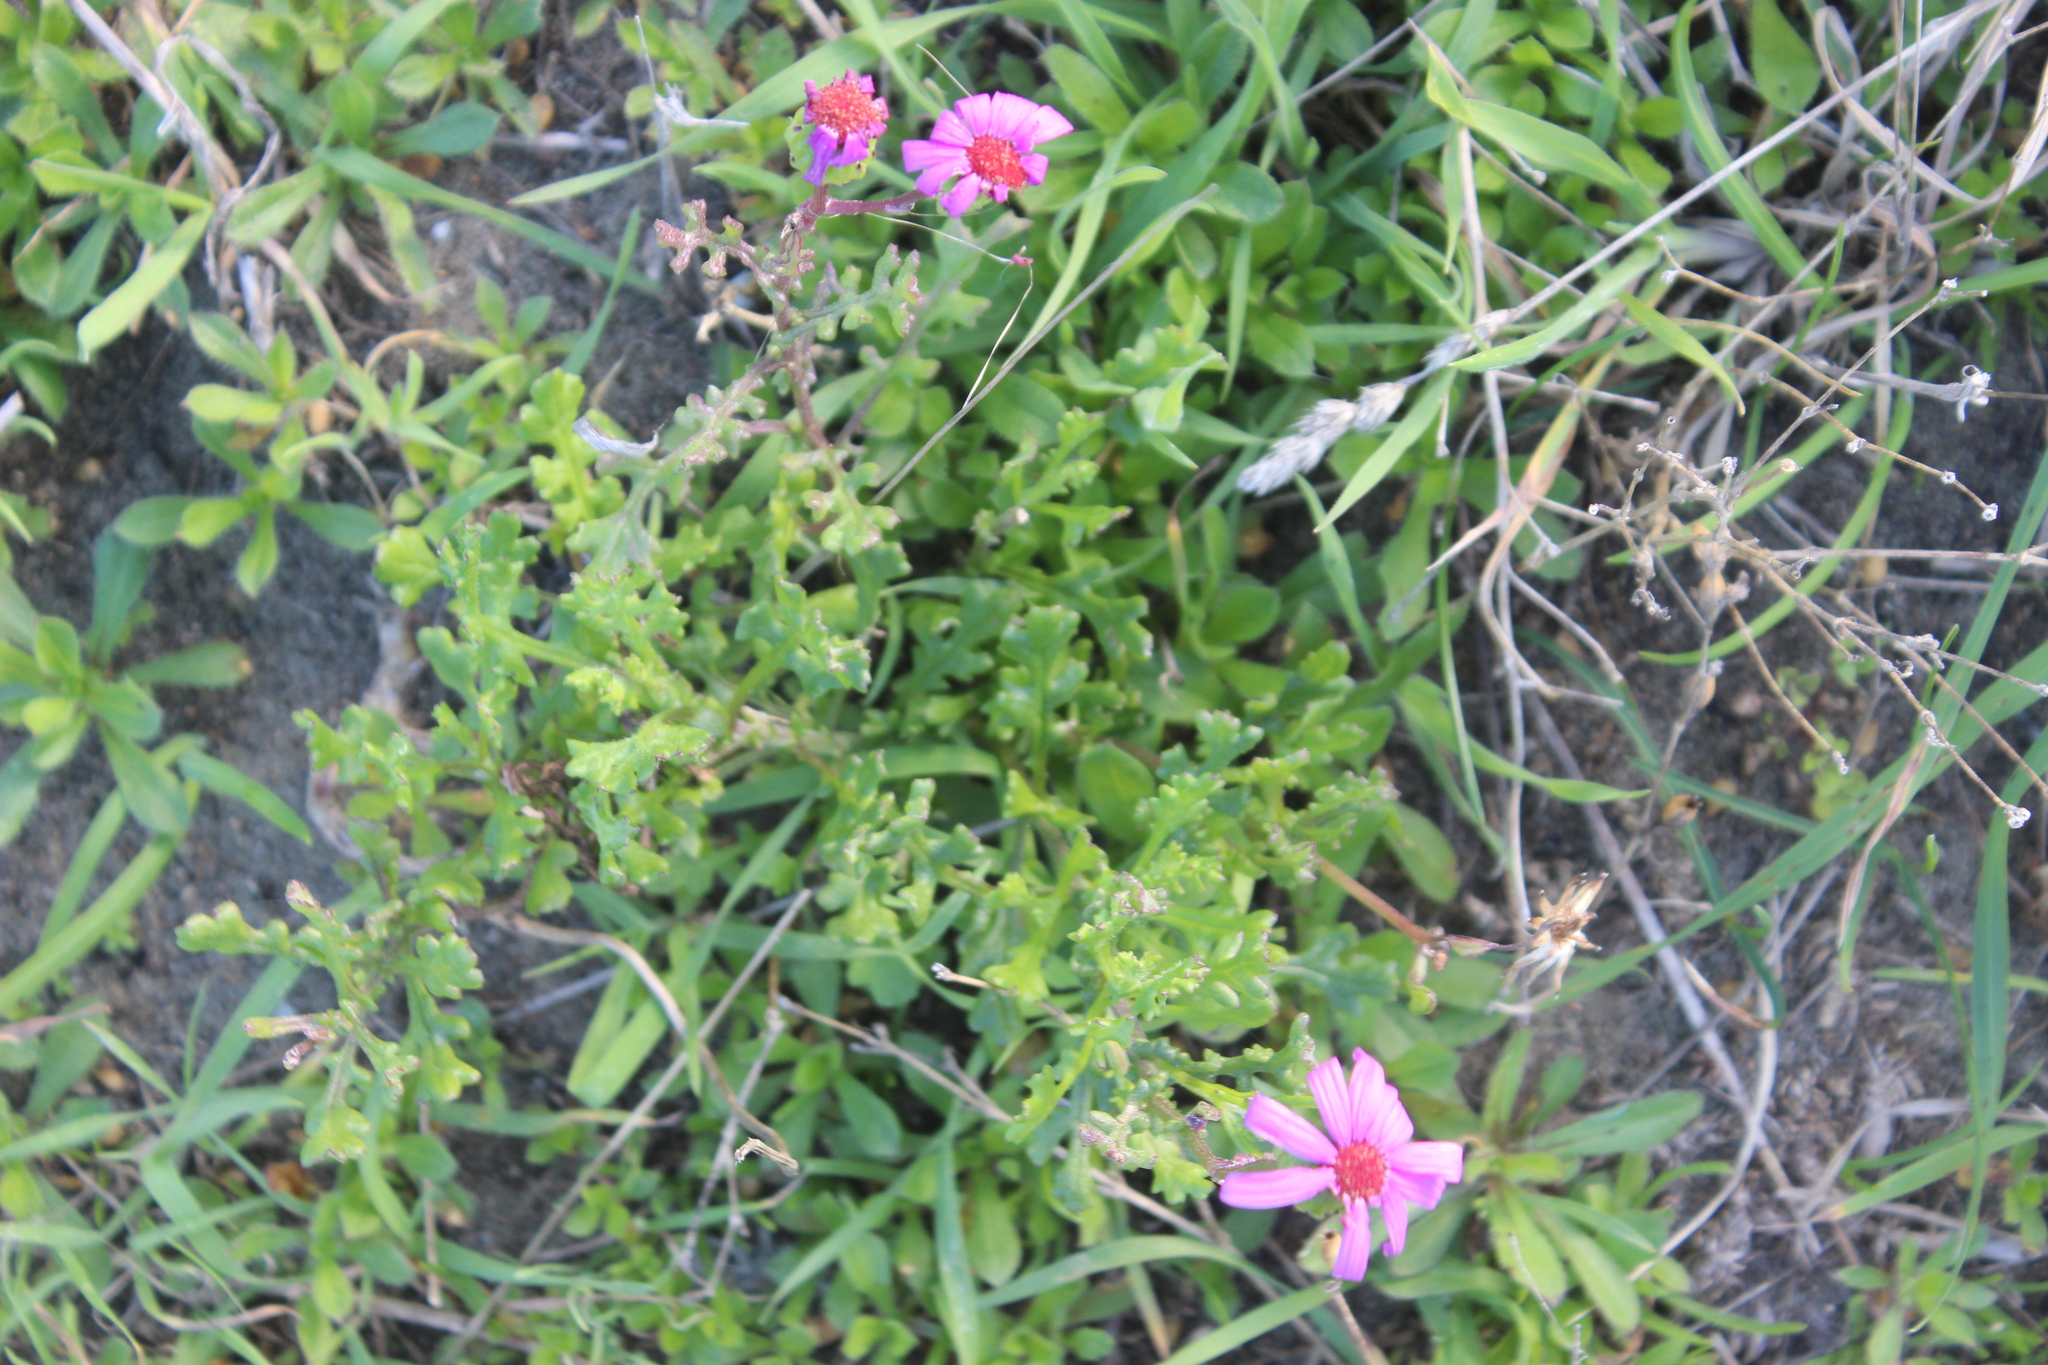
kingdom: Plantae
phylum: Tracheophyta
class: Magnoliopsida
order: Asterales
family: Asteraceae
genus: Senecio
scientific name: Senecio elegans
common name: Purple groundsel
